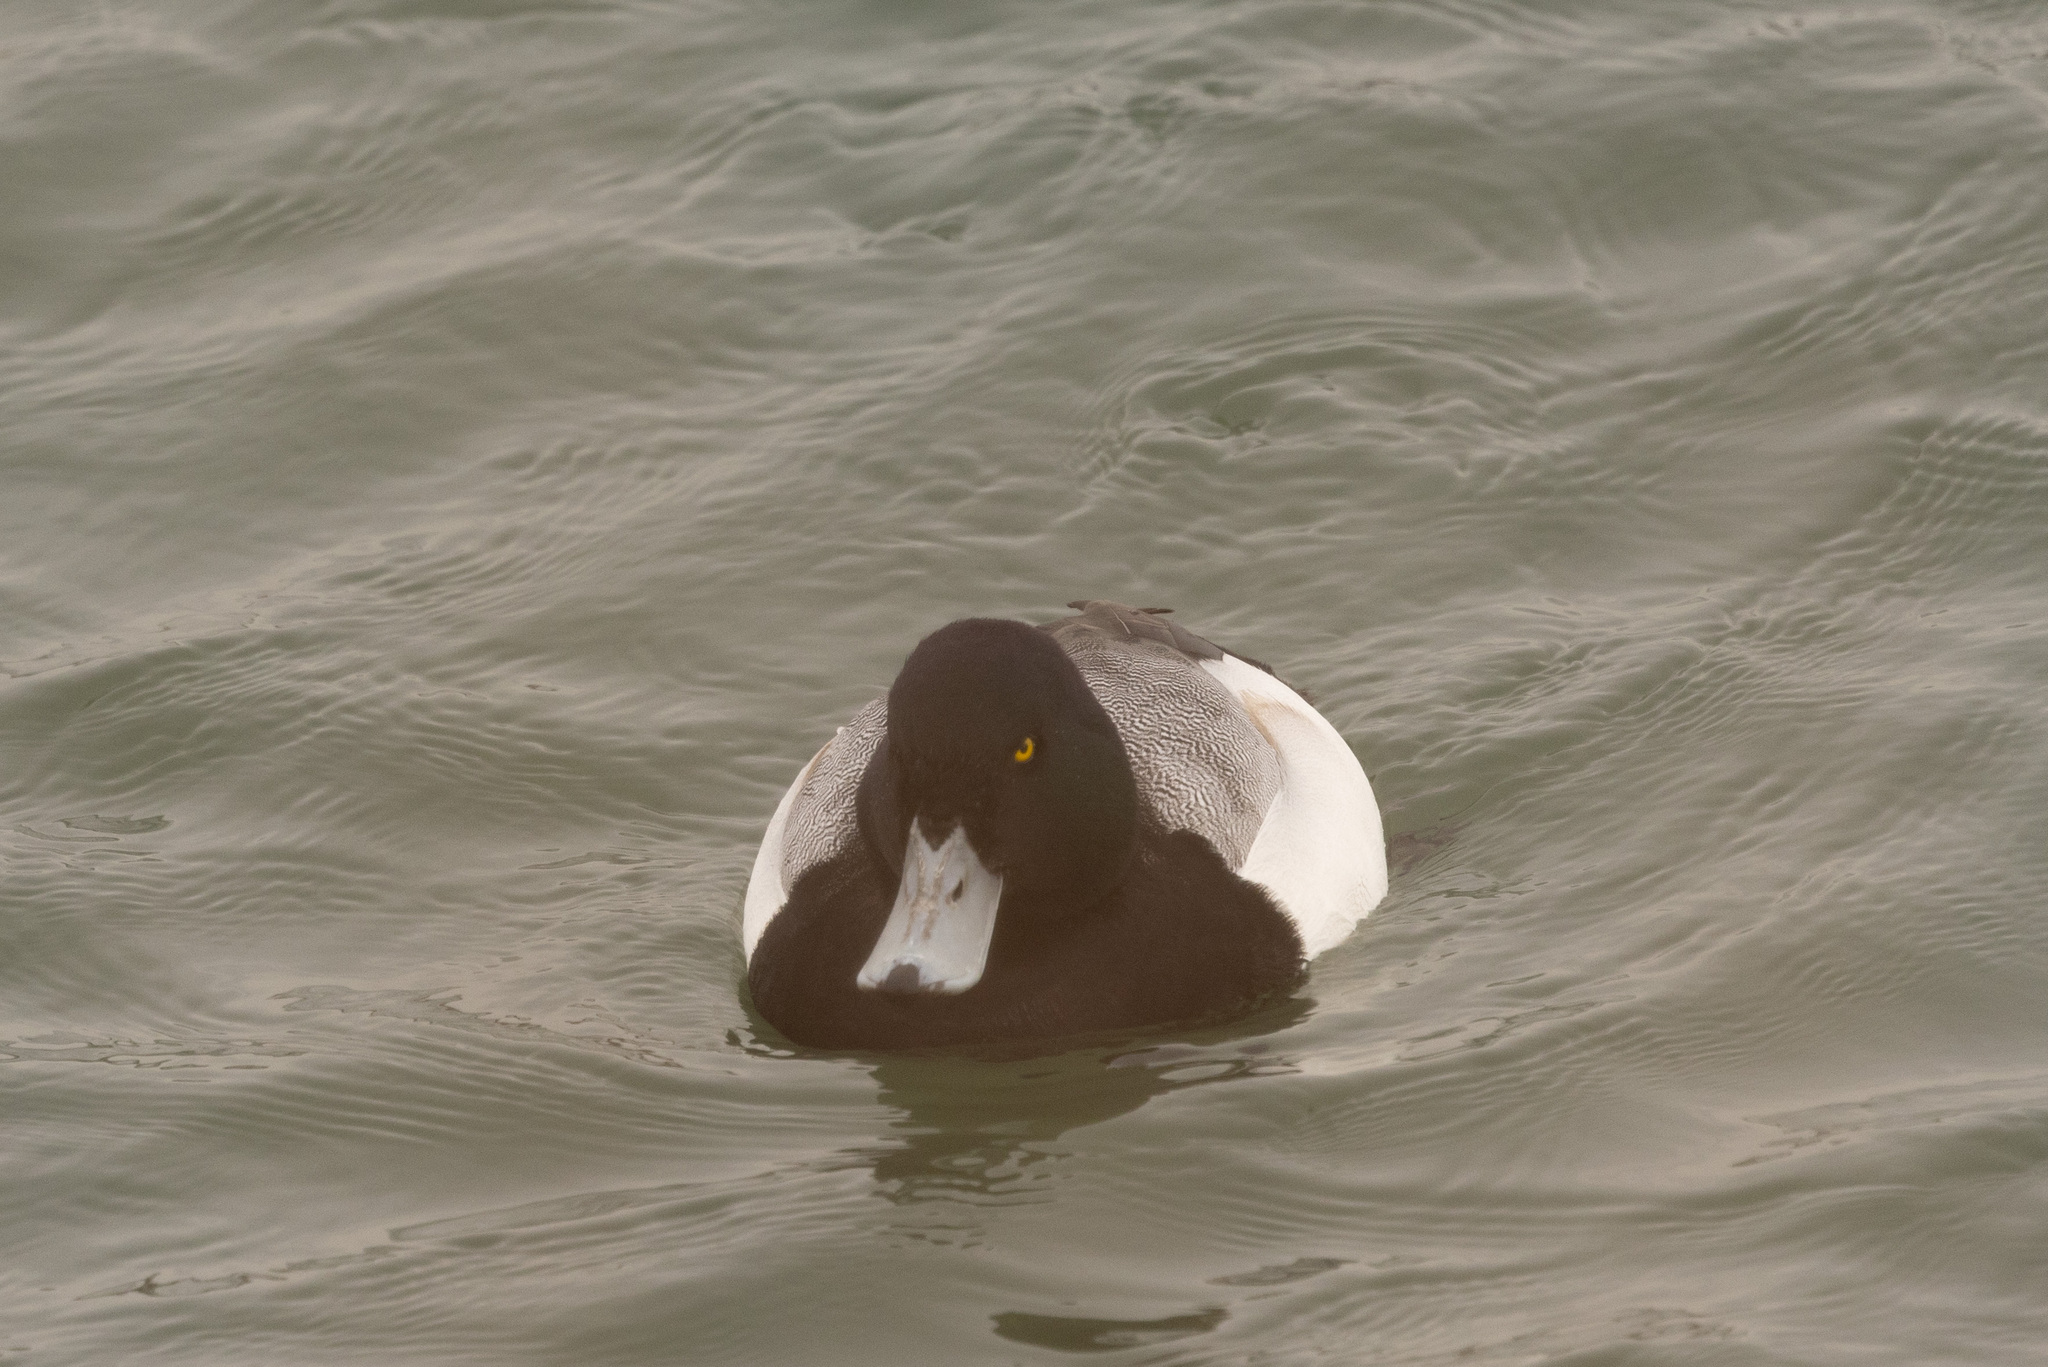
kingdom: Animalia
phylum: Chordata
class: Aves
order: Anseriformes
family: Anatidae
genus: Aythya
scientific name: Aythya marila
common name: Greater scaup
